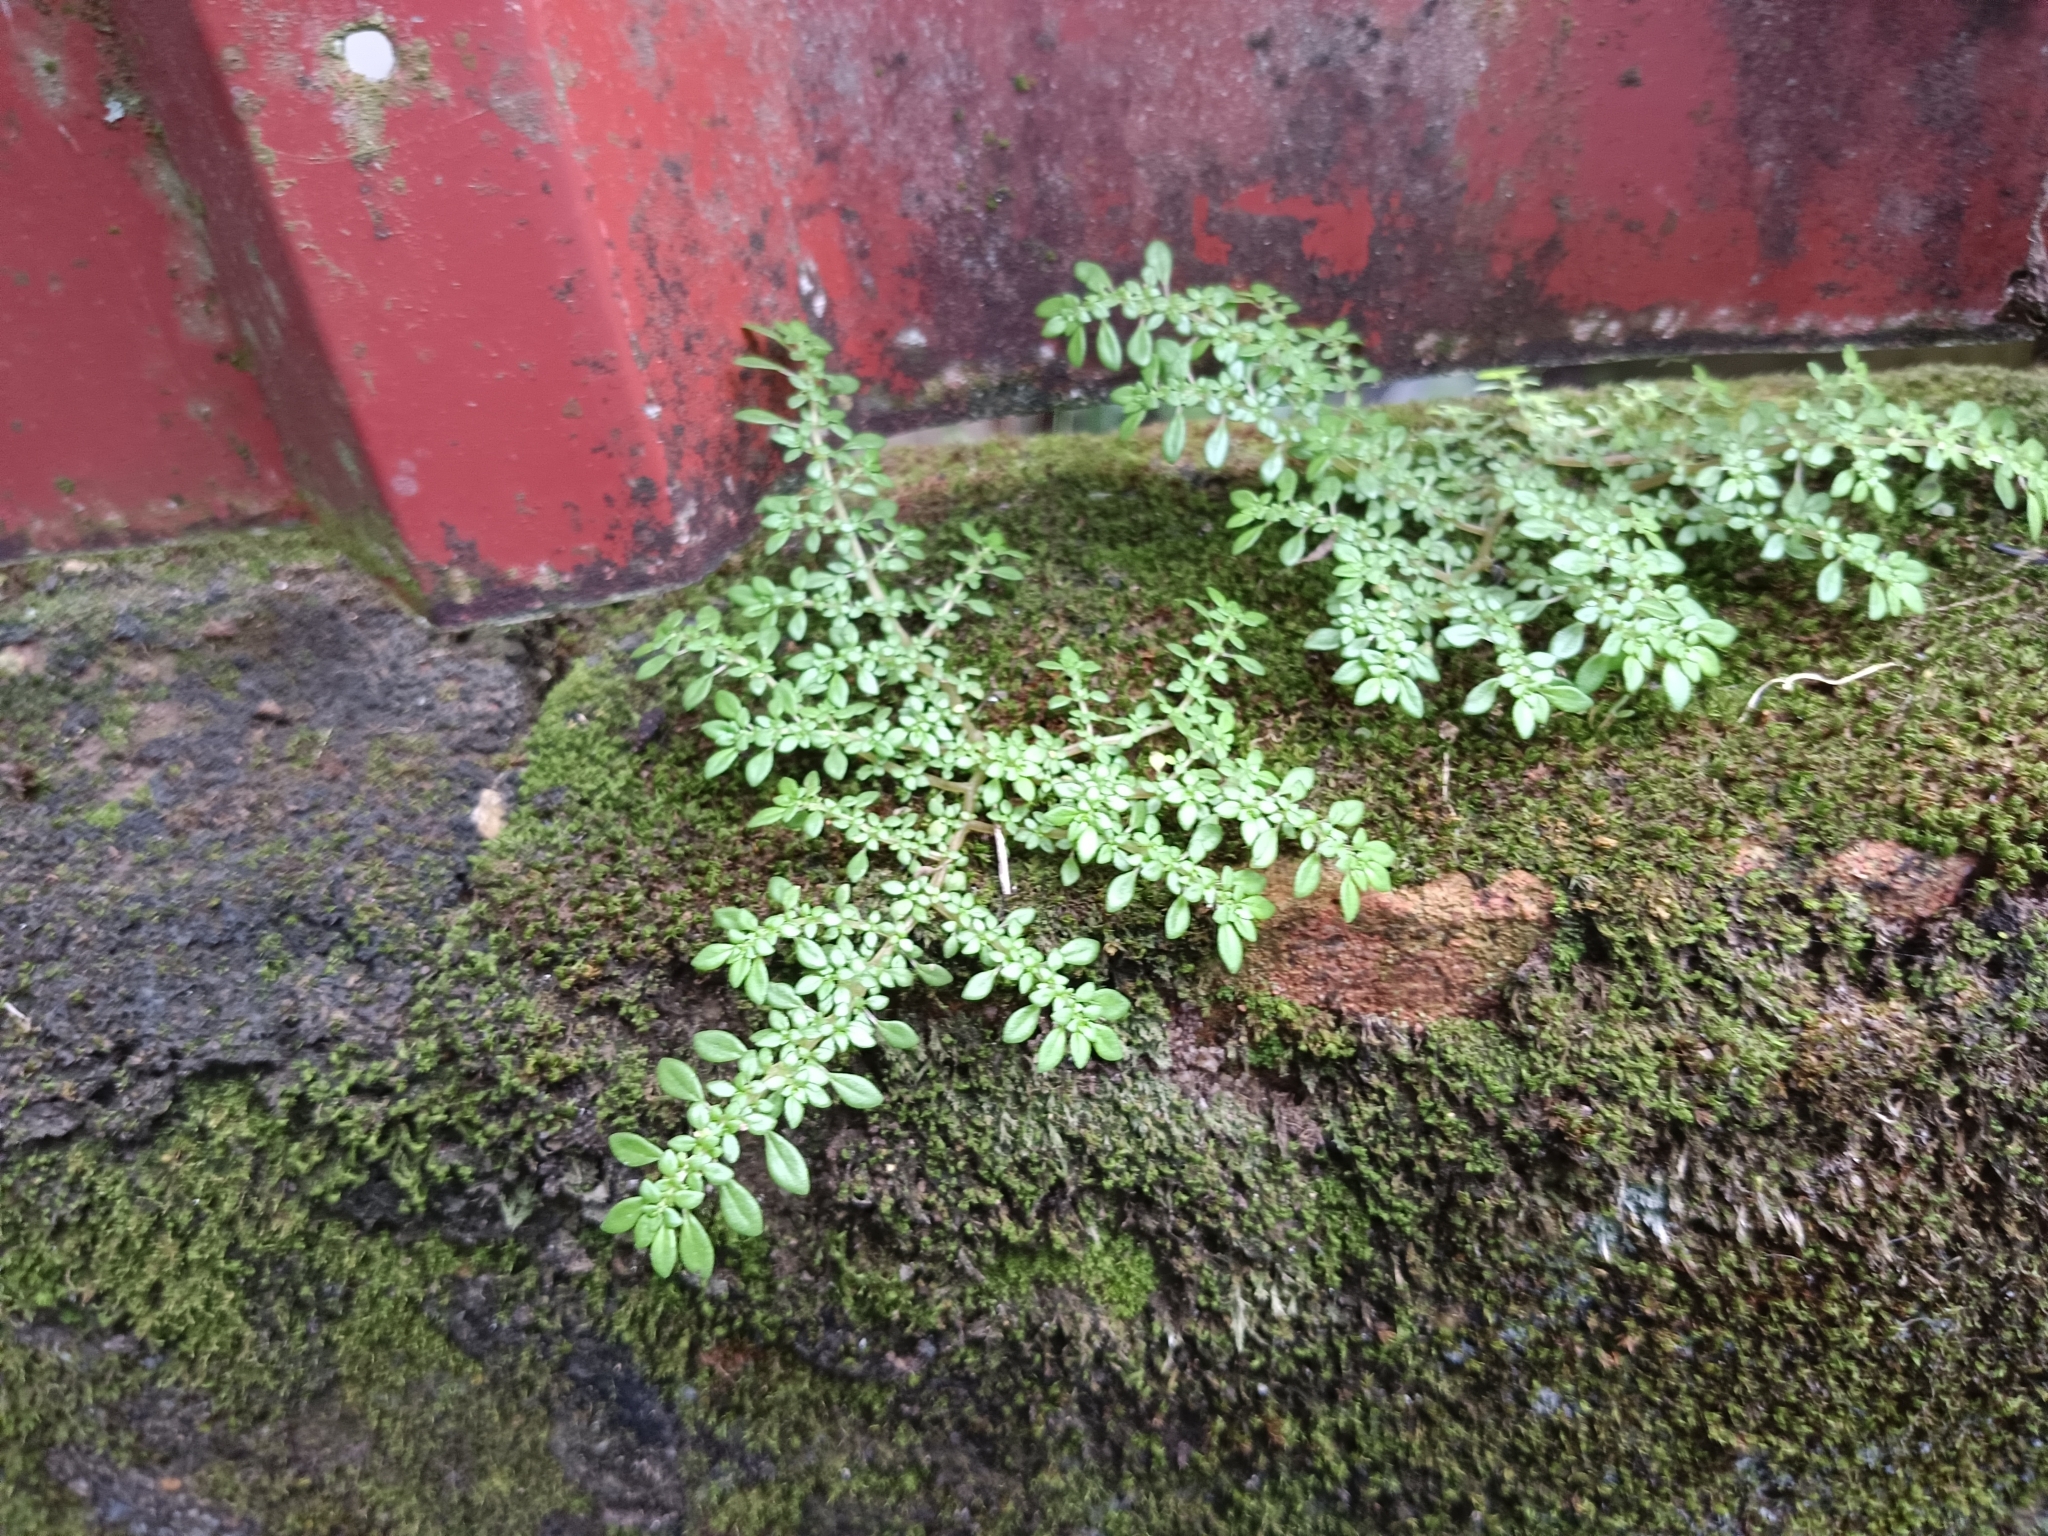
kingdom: Plantae
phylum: Tracheophyta
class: Magnoliopsida
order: Rosales
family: Urticaceae
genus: Pilea
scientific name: Pilea microphylla
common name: Artillery-plant
